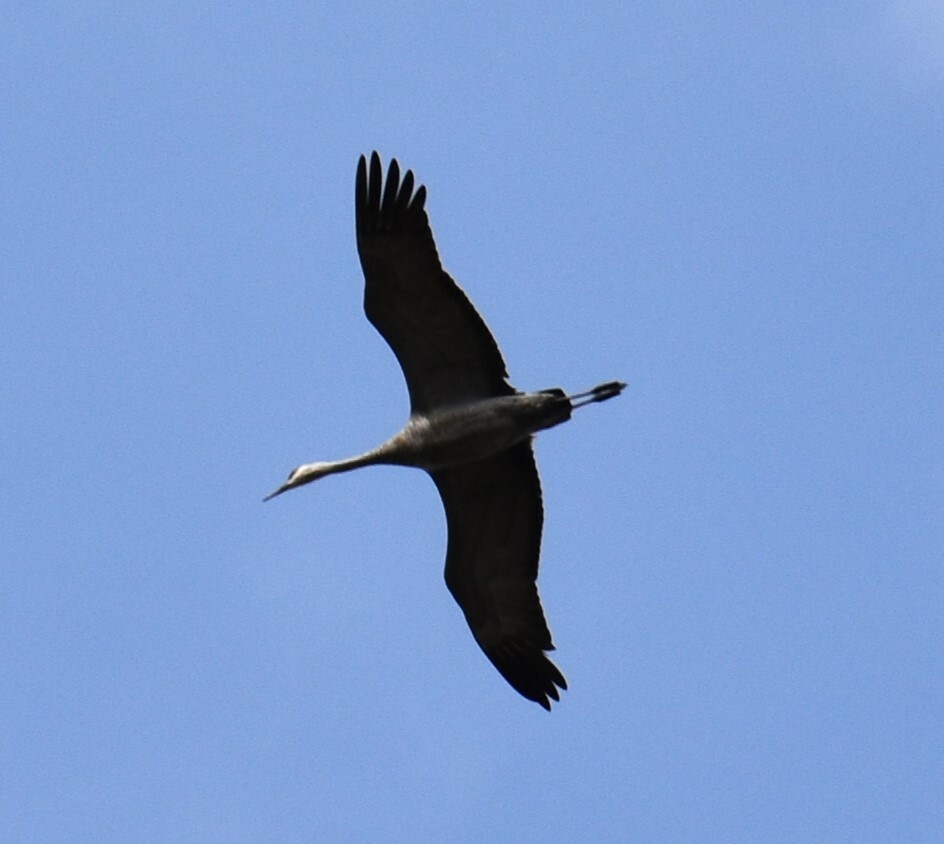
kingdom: Animalia
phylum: Chordata
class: Aves
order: Gruiformes
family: Gruidae
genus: Grus
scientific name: Grus canadensis
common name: Sandhill crane
